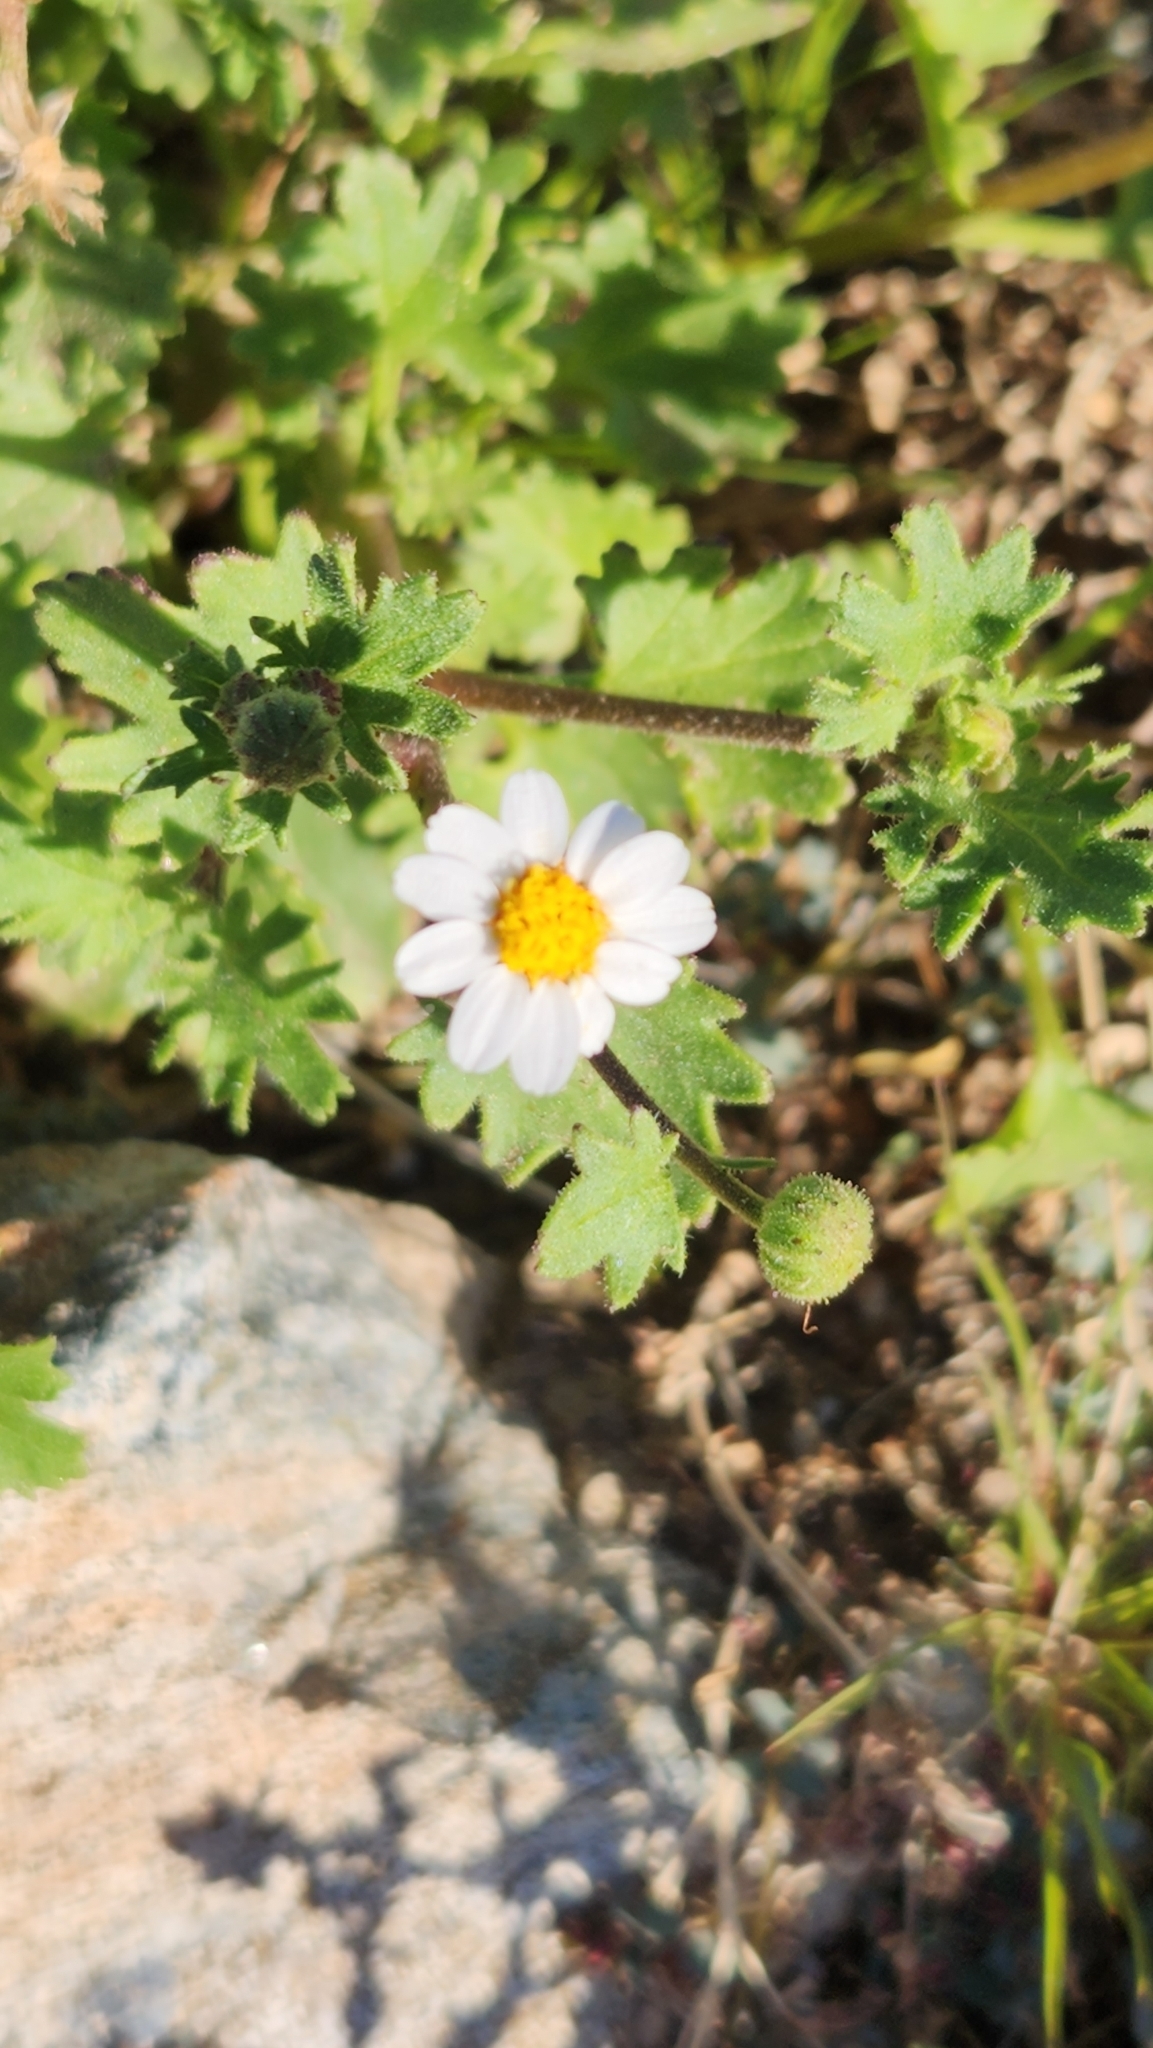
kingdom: Plantae
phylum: Tracheophyta
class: Magnoliopsida
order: Asterales
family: Asteraceae
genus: Laphamia
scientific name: Laphamia emoryi
